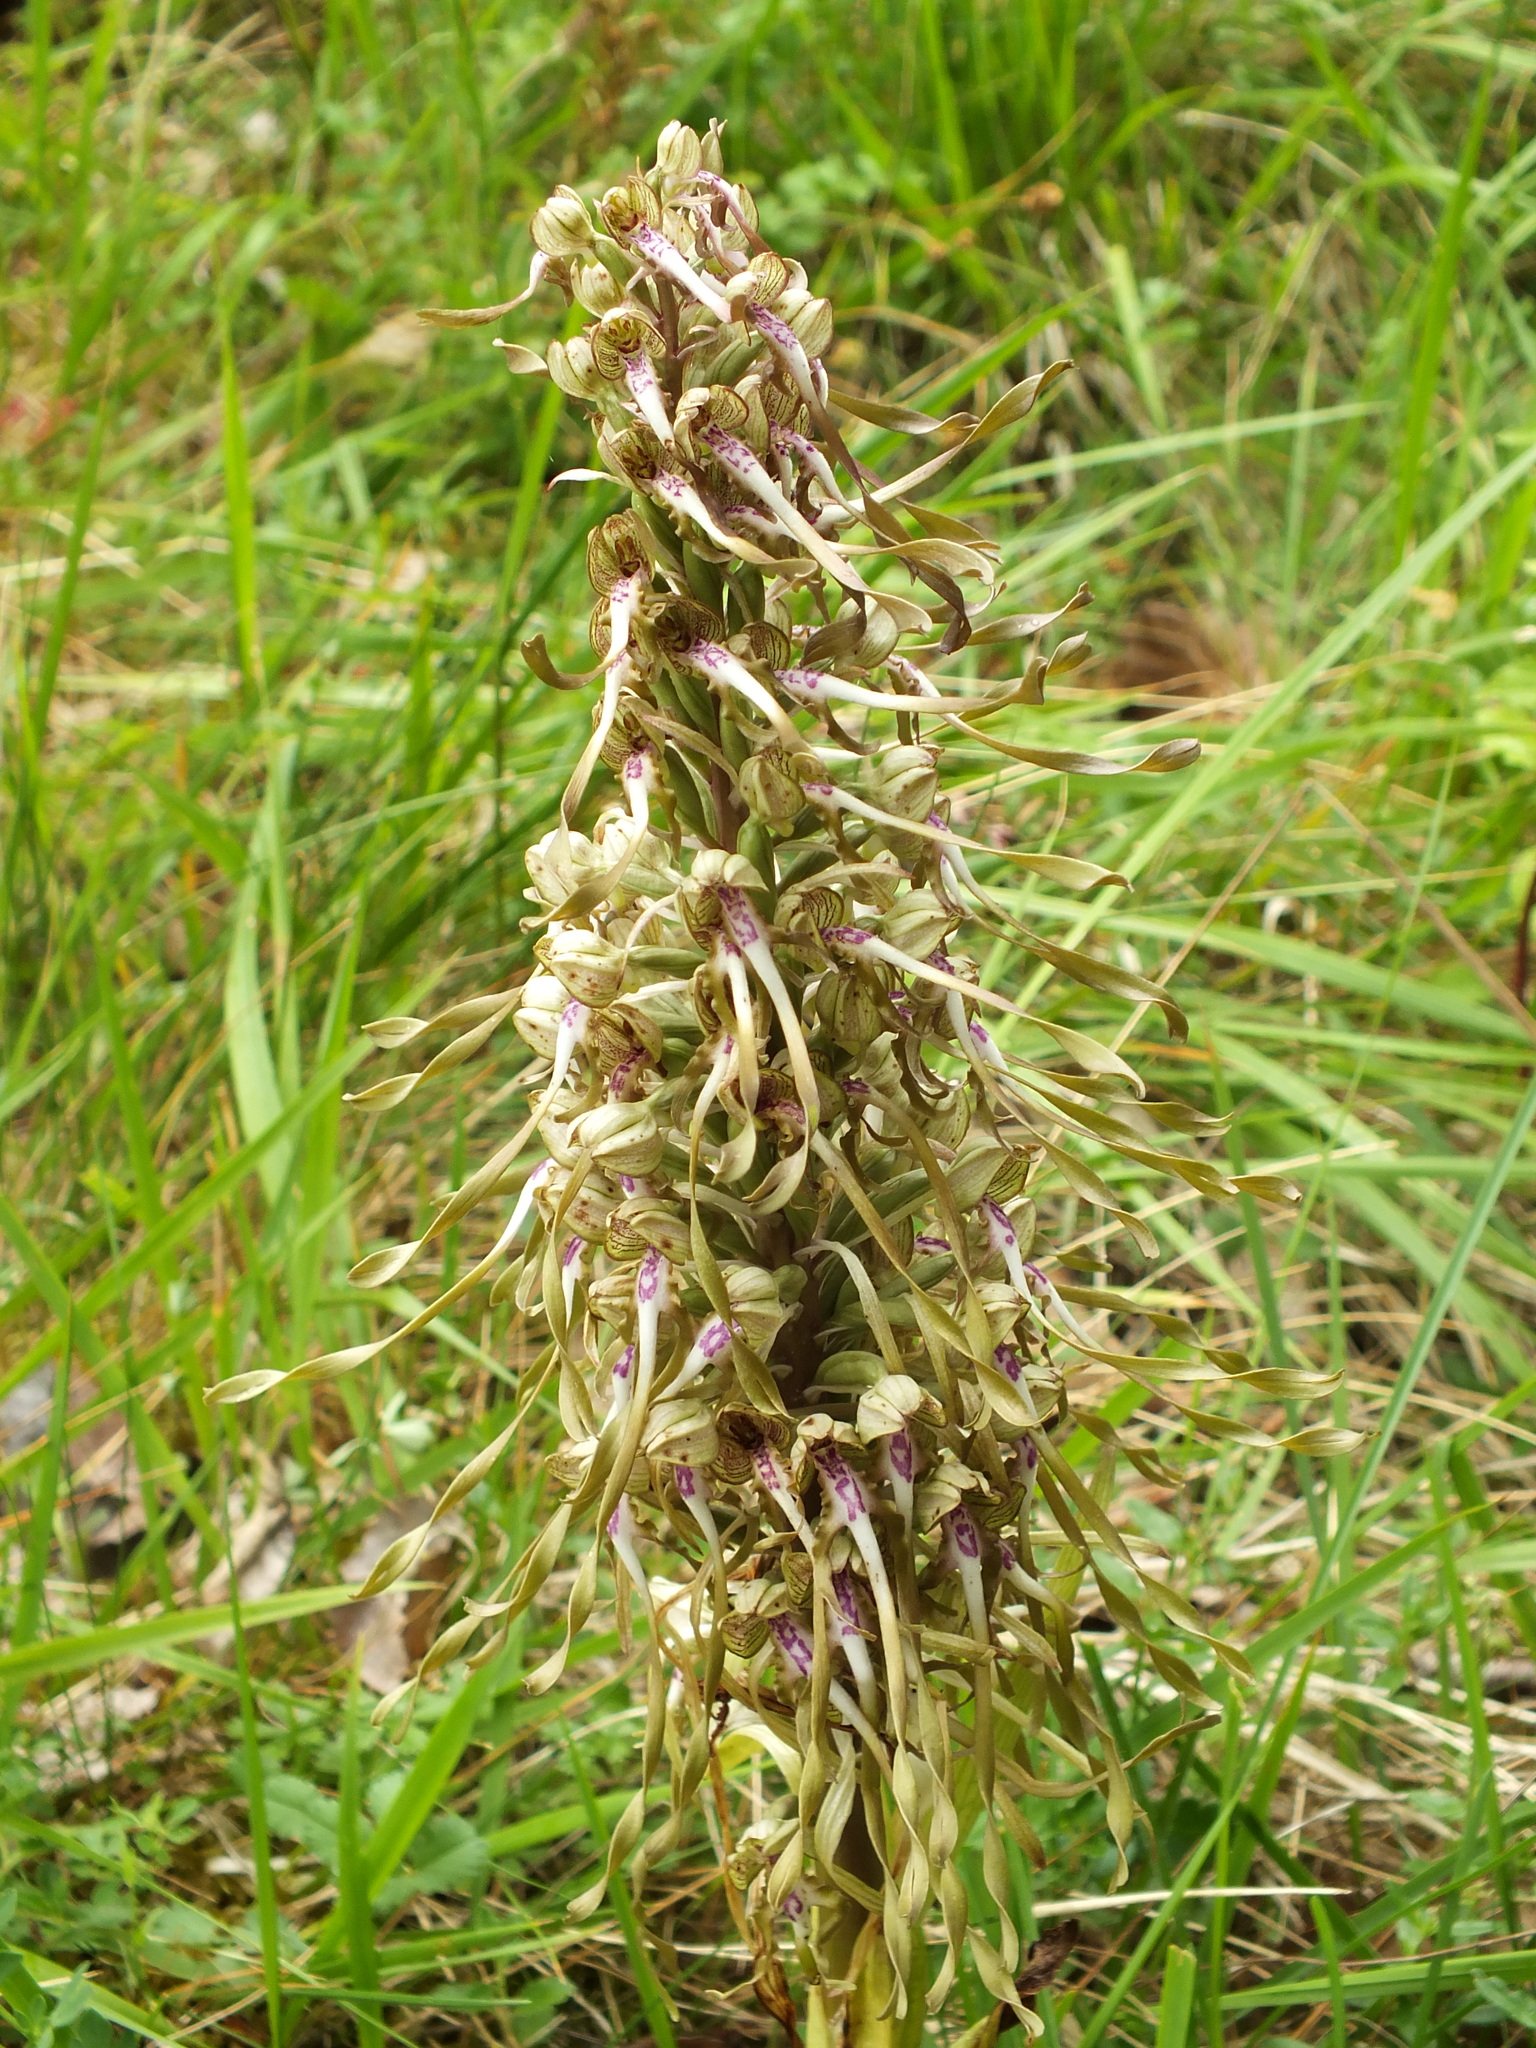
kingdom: Plantae
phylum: Tracheophyta
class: Liliopsida
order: Asparagales
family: Orchidaceae
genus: Himantoglossum
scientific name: Himantoglossum hircinum
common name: Lizard orchid
